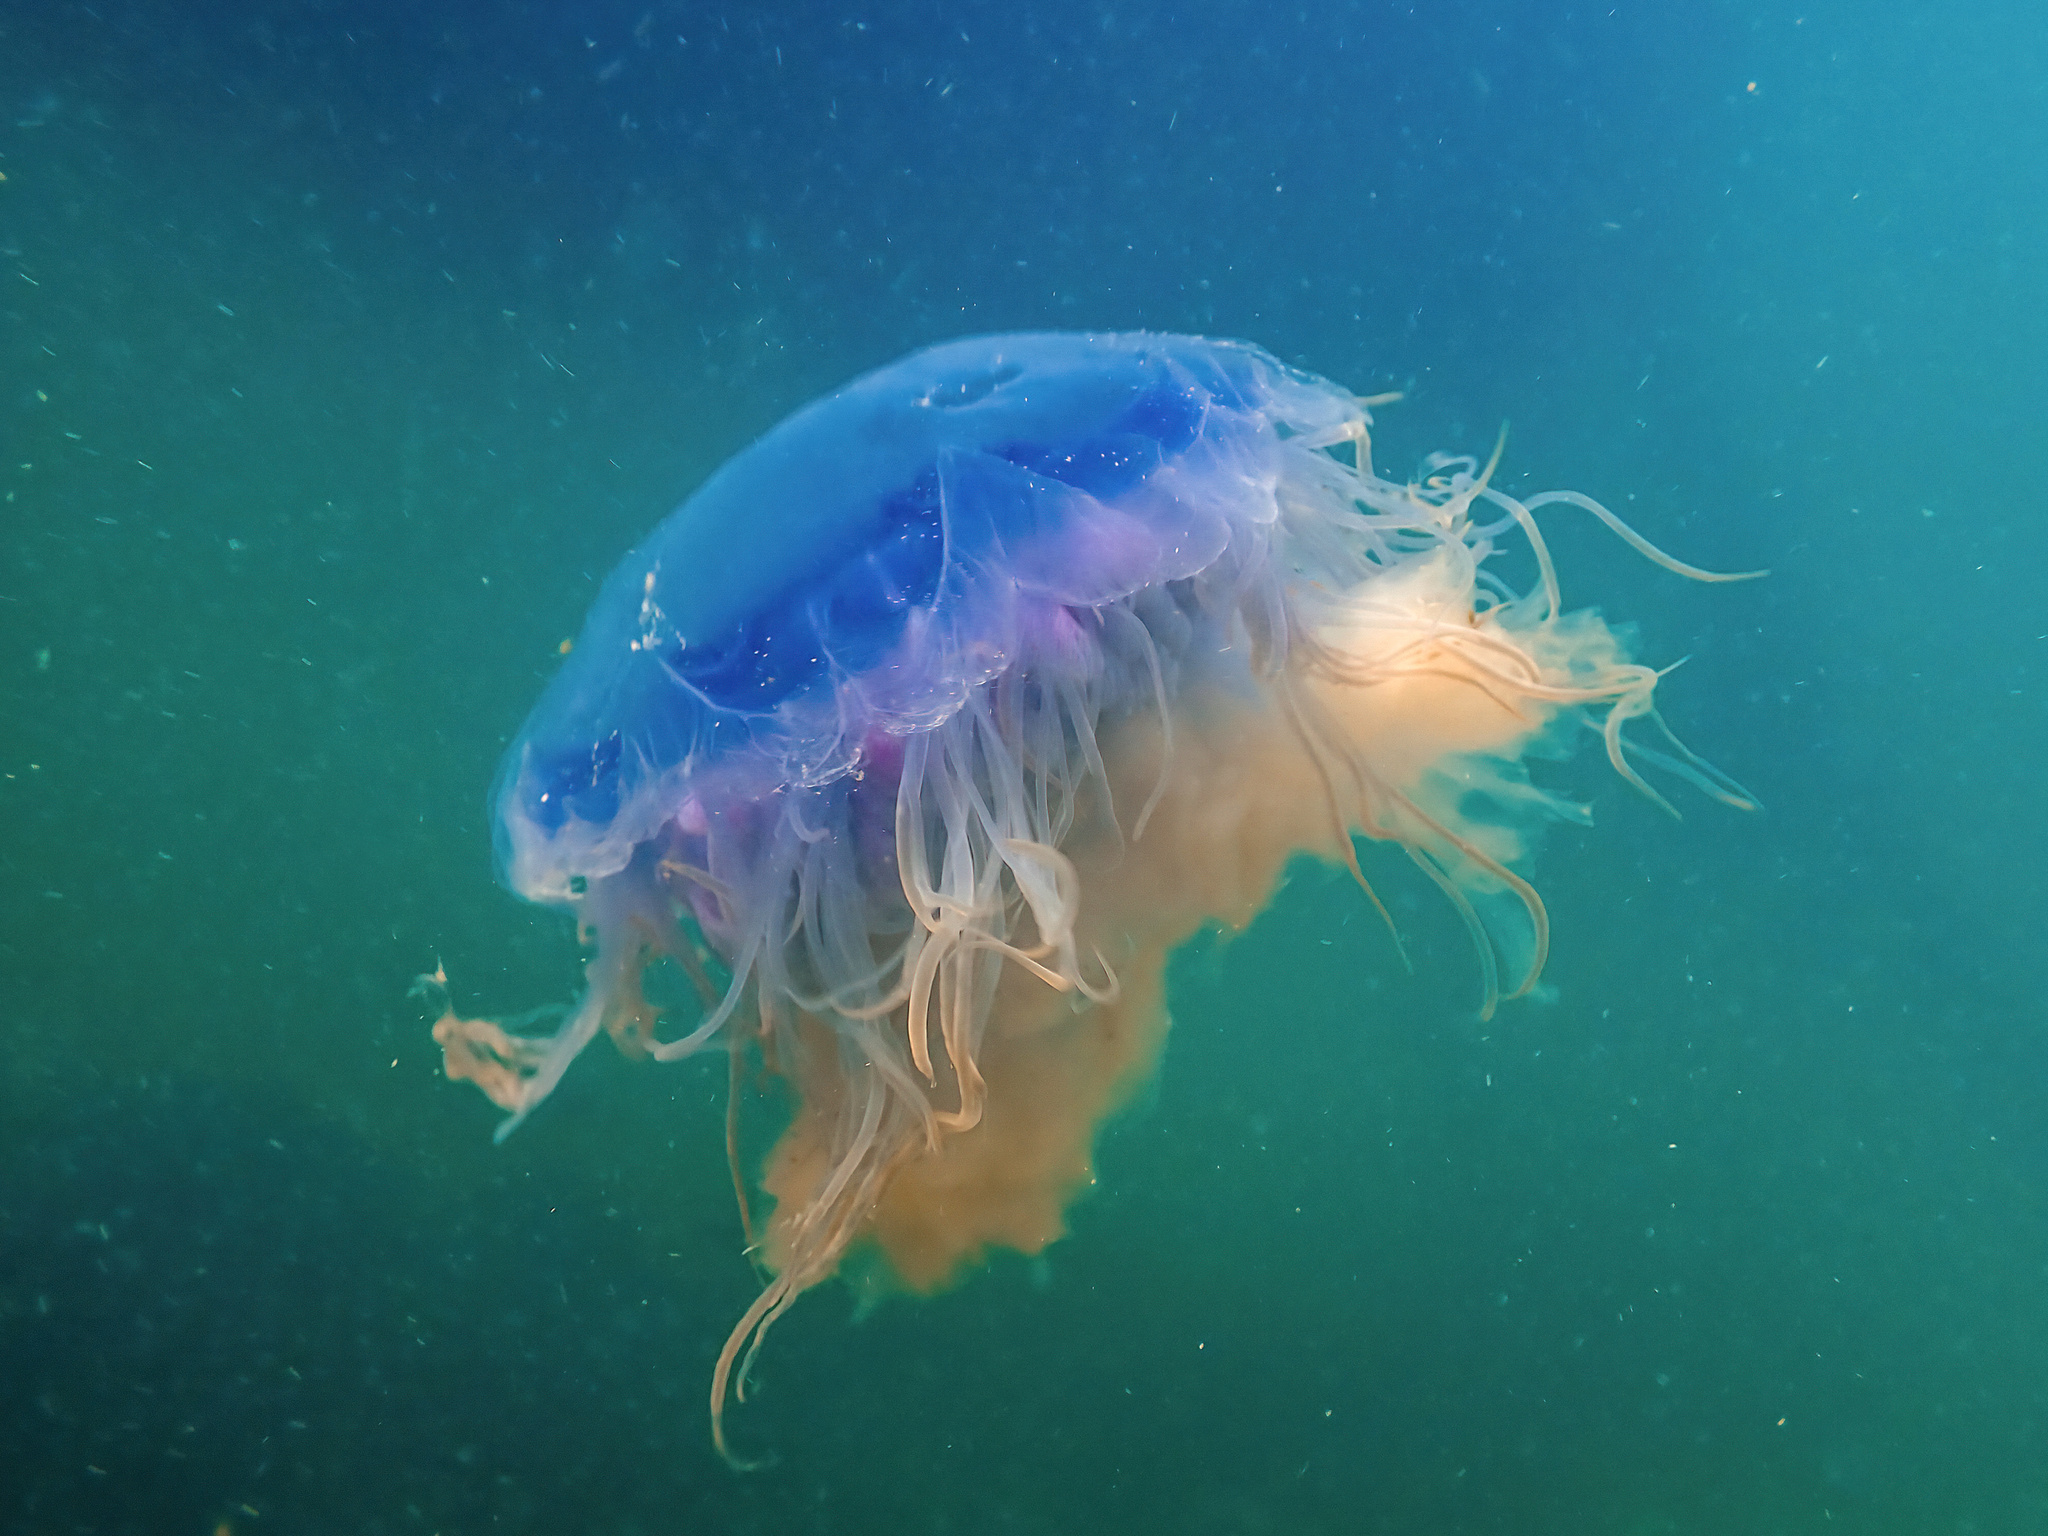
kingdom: Animalia
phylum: Cnidaria
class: Scyphozoa
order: Semaeostomeae
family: Cyaneidae
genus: Cyanea
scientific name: Cyanea lamarckii
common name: Blue jellyfish
